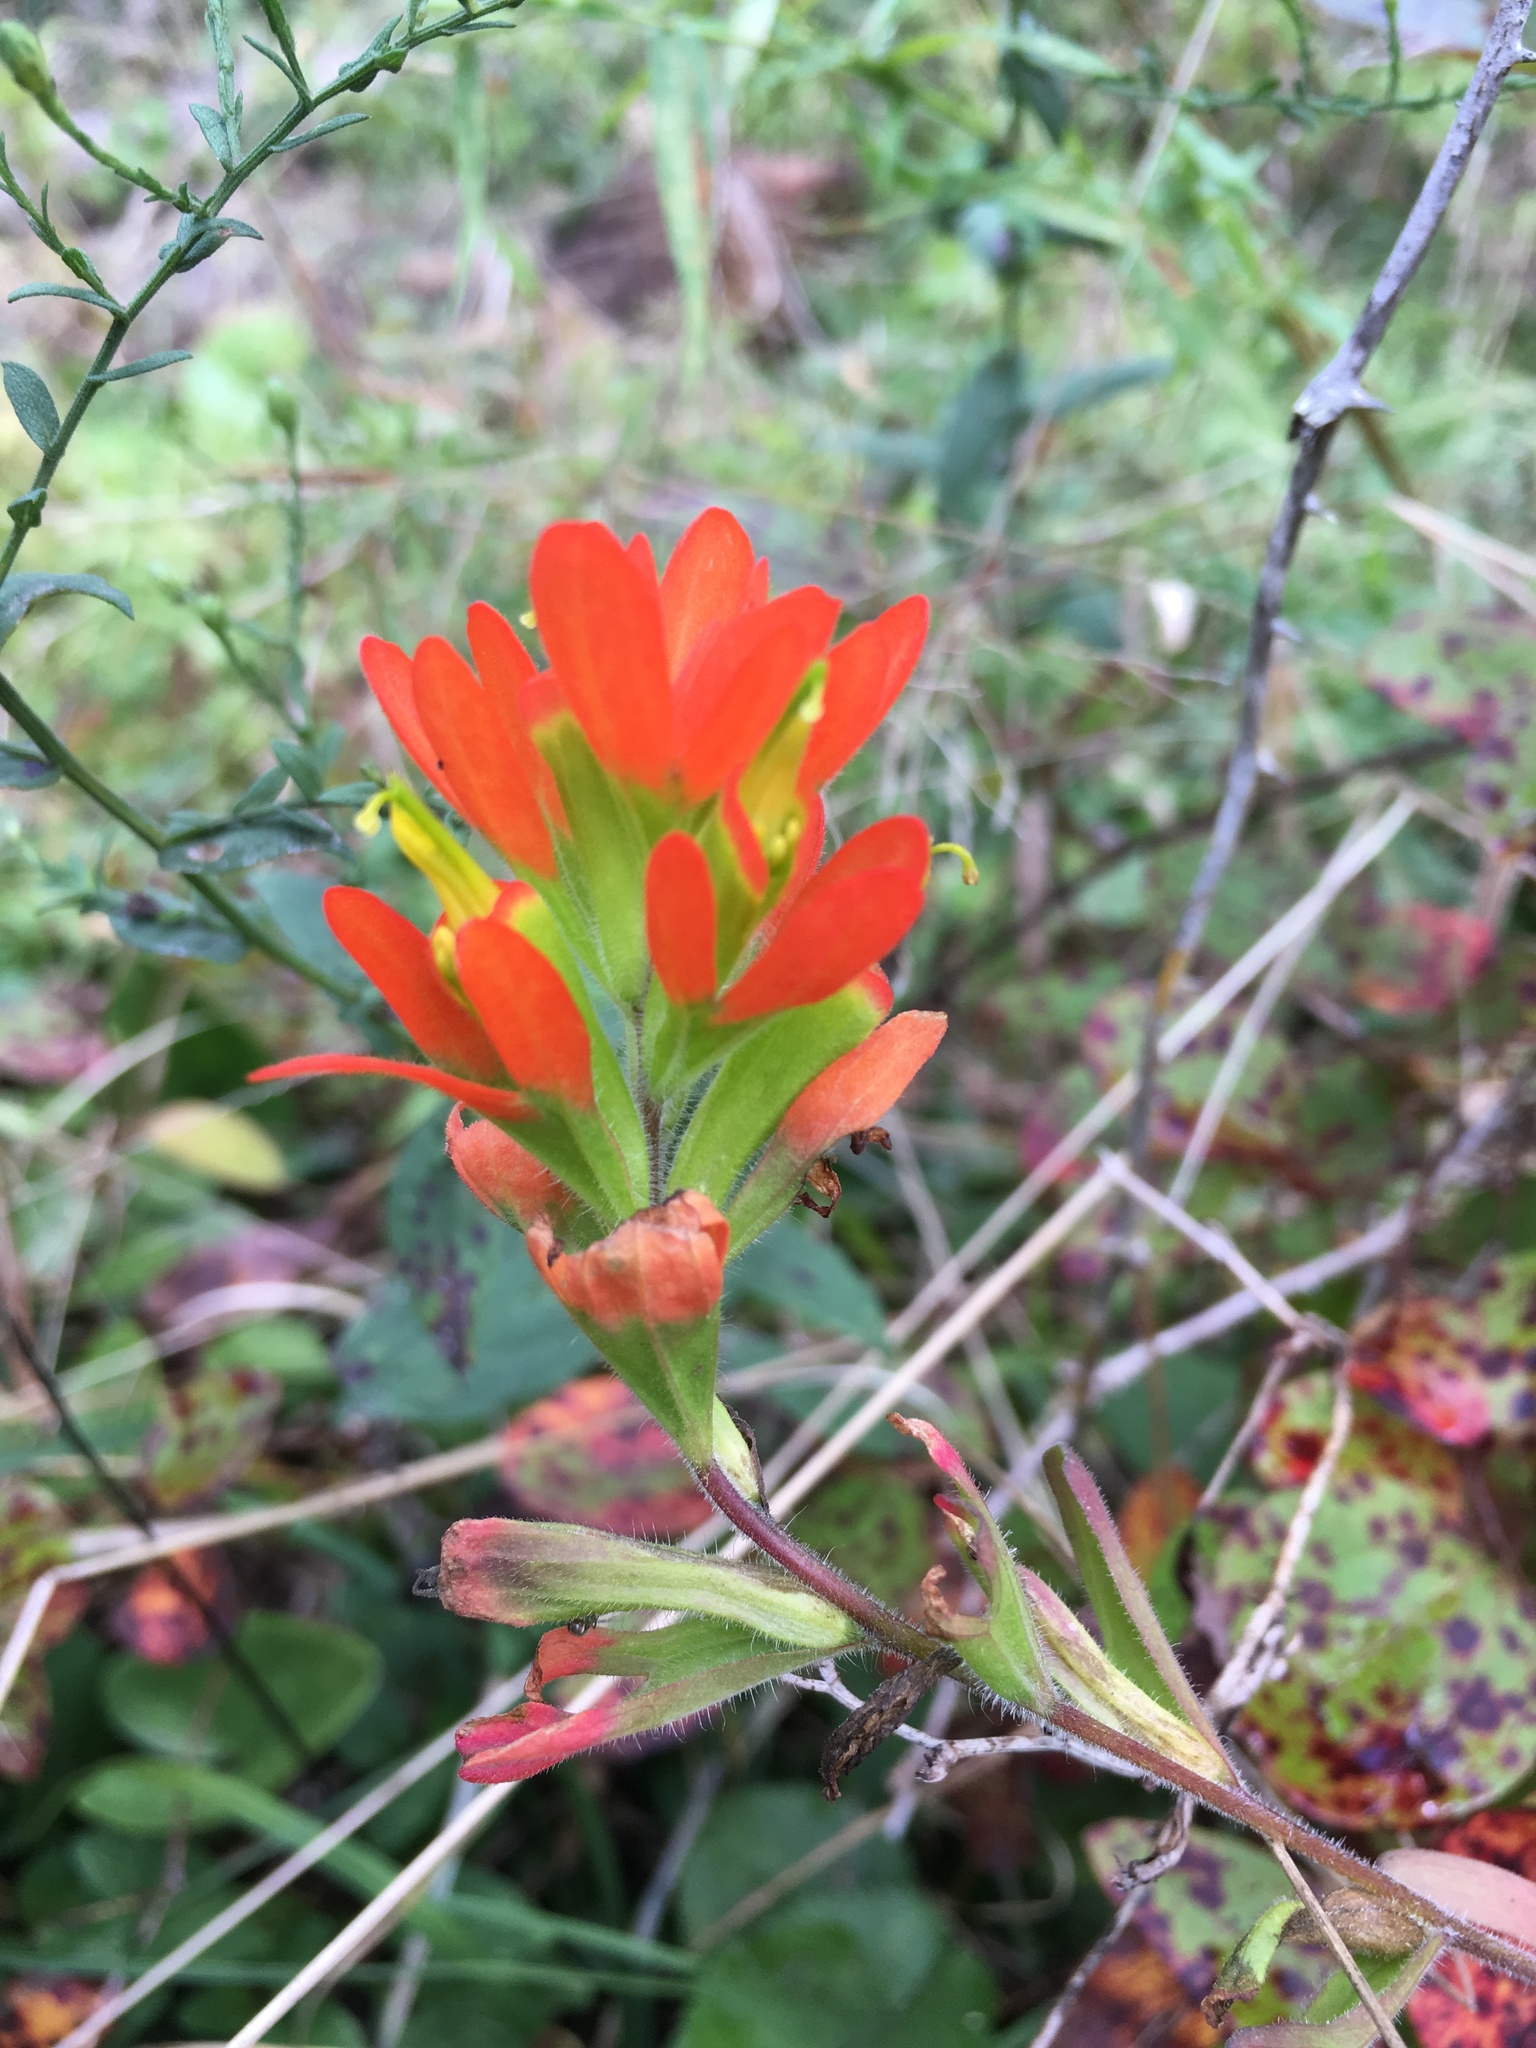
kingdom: Plantae
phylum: Tracheophyta
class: Magnoliopsida
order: Lamiales
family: Orobanchaceae
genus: Castilleja
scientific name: Castilleja coccinea
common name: Scarlet paintbrush
